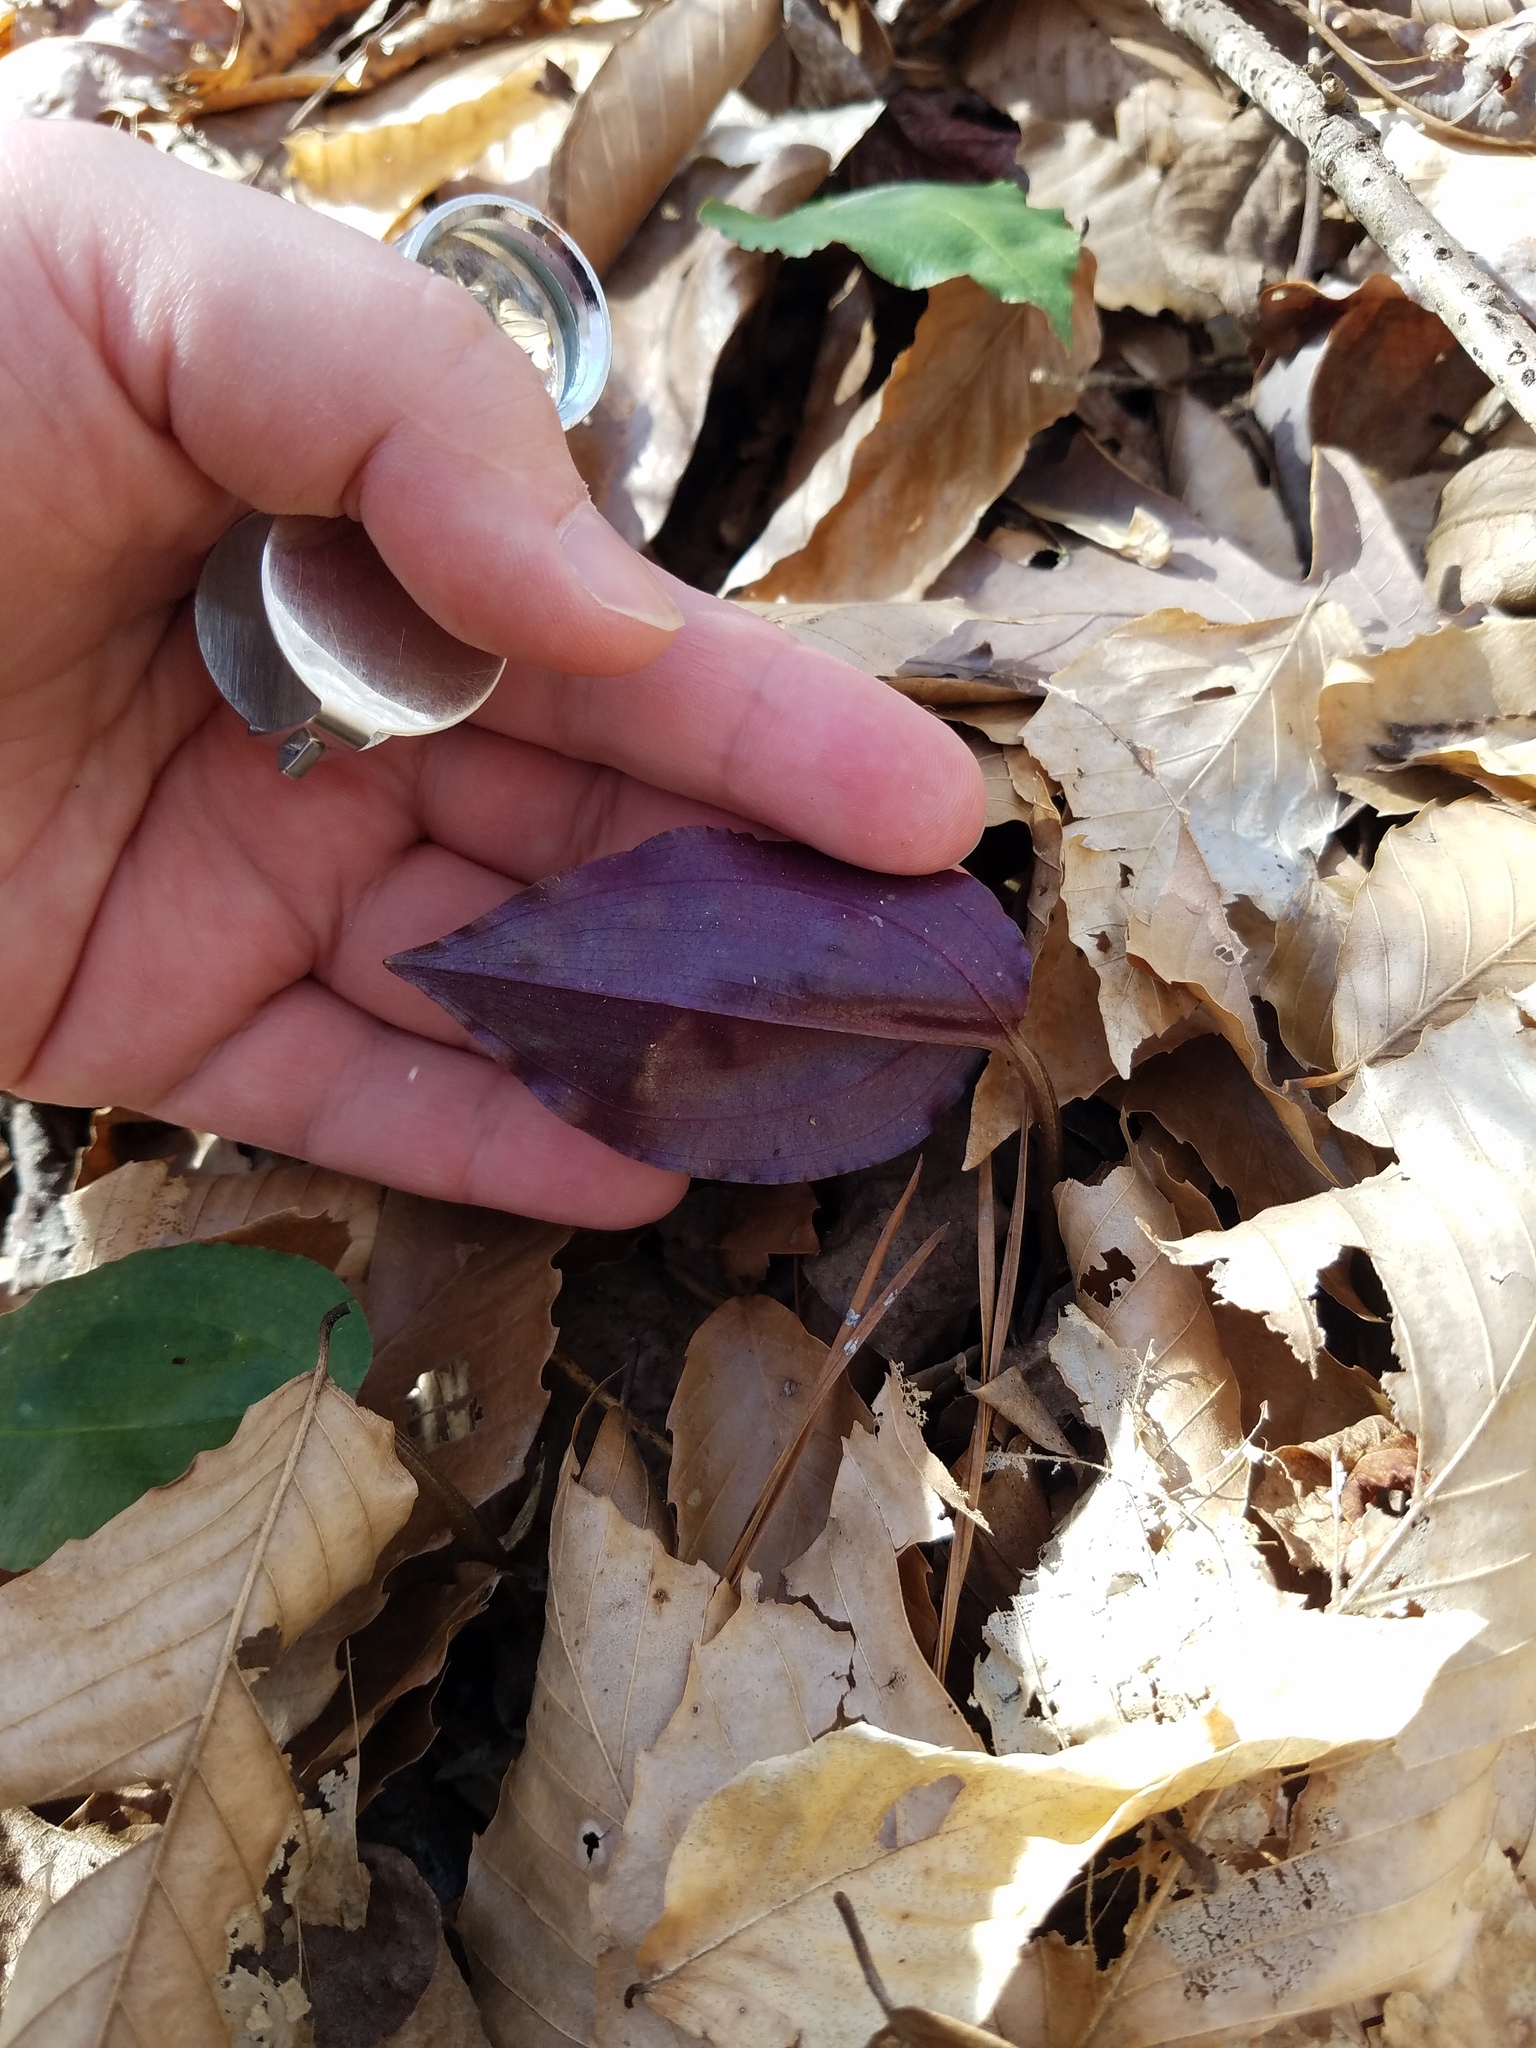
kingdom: Plantae
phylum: Tracheophyta
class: Liliopsida
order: Asparagales
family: Orchidaceae
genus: Tipularia
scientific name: Tipularia discolor
